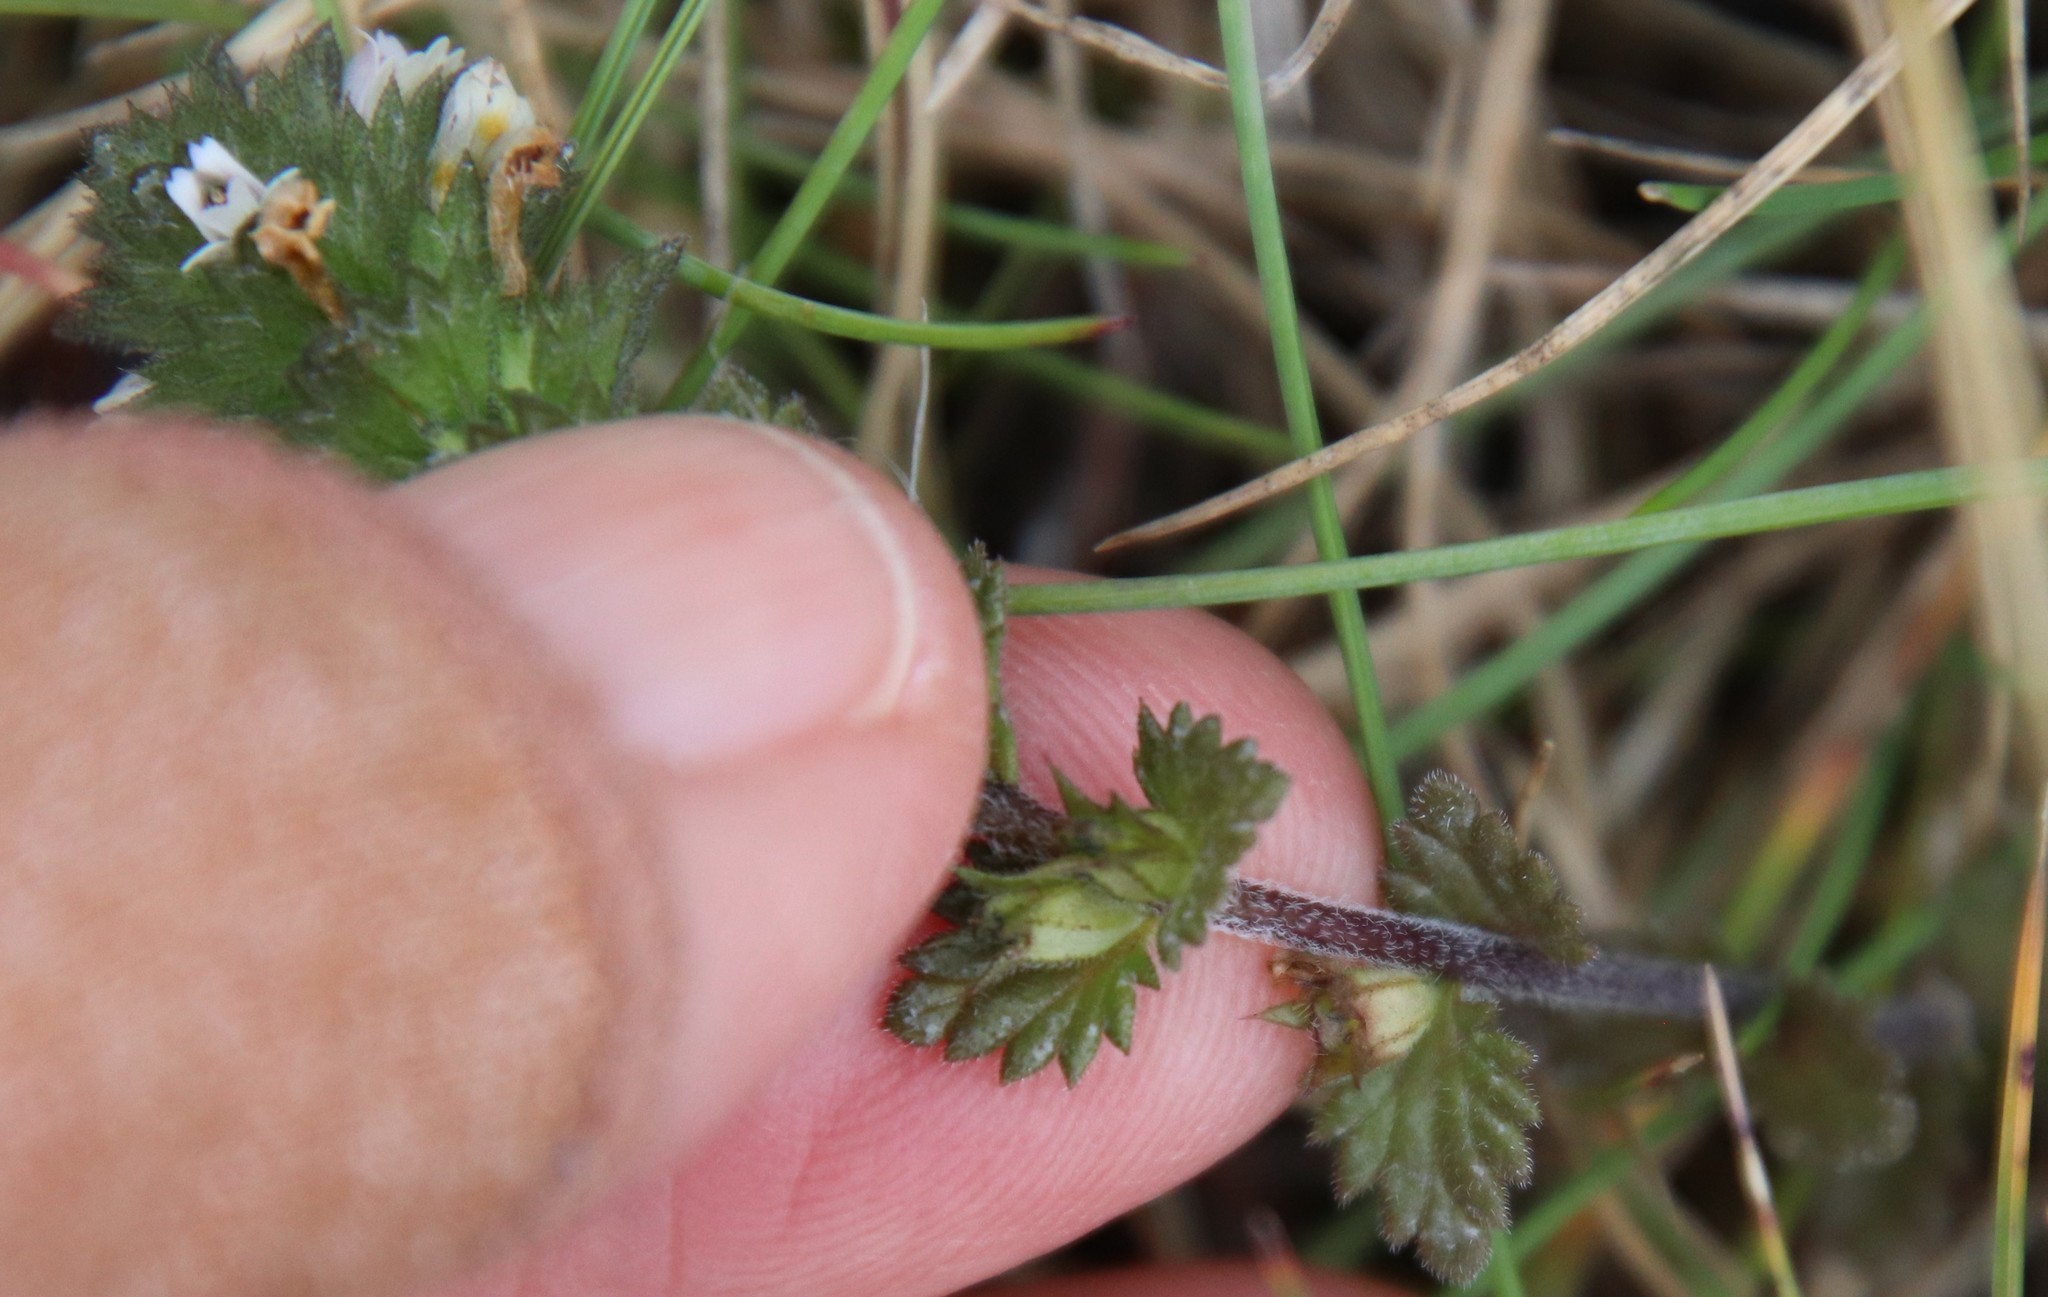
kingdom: Plantae
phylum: Tracheophyta
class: Magnoliopsida
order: Lamiales
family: Orobanchaceae
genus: Euphrasia
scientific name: Euphrasia frigida
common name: An eyebright
